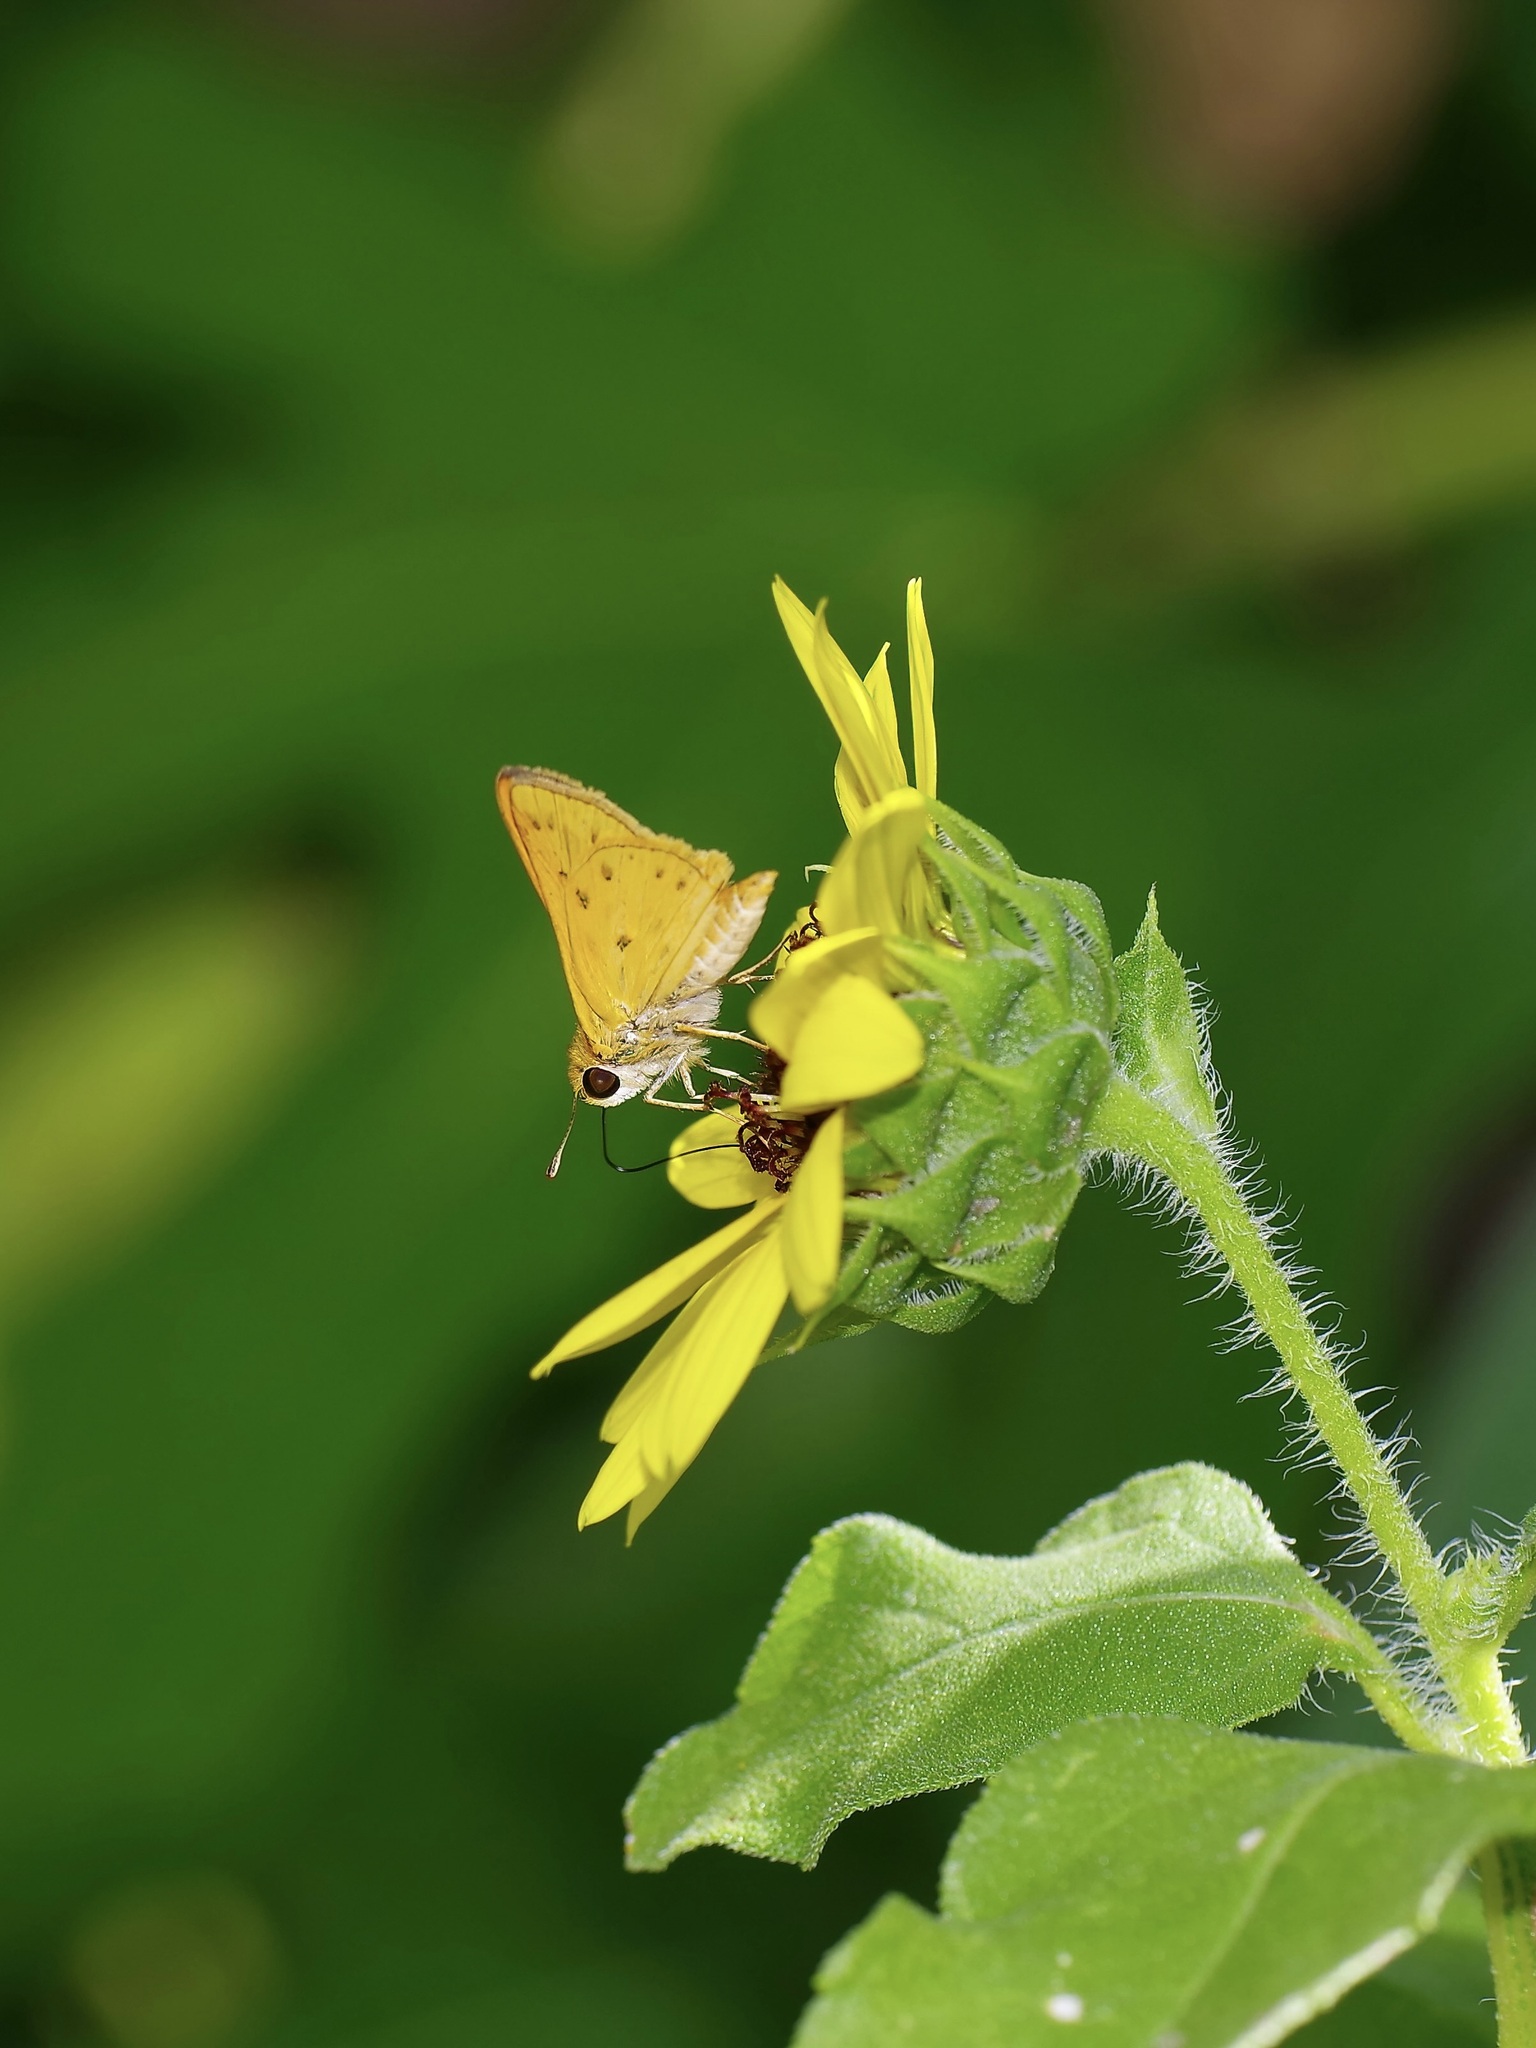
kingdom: Animalia
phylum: Arthropoda
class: Insecta
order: Lepidoptera
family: Hesperiidae
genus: Hylephila
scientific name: Hylephila phyleus
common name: Fiery skipper
